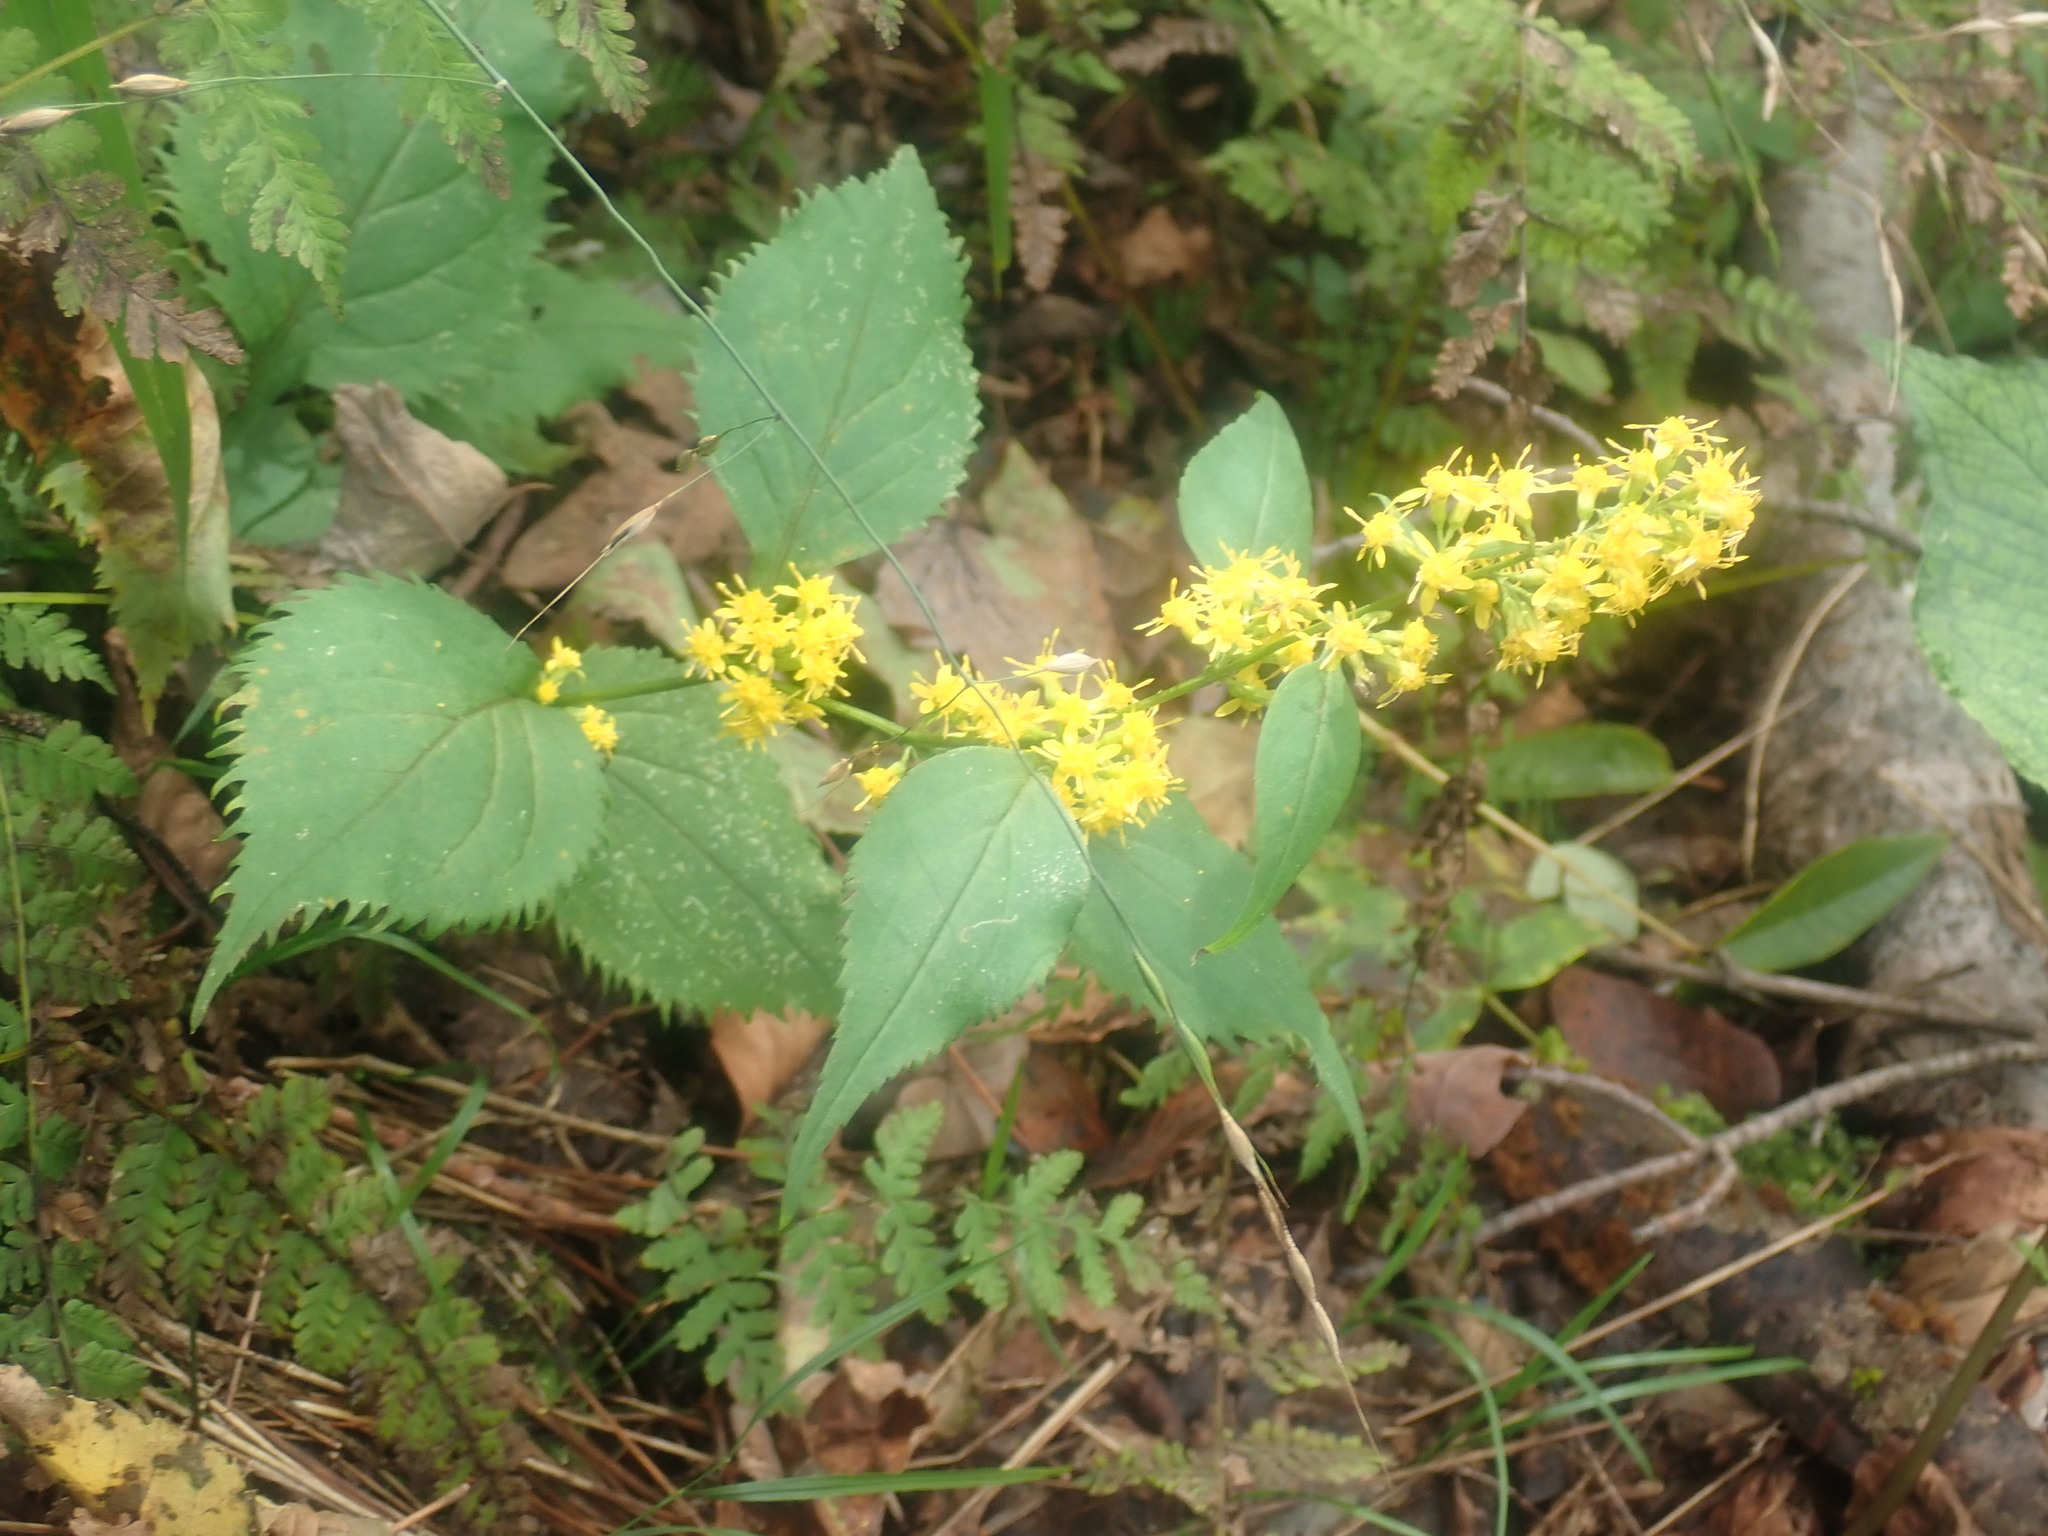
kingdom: Plantae
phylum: Tracheophyta
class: Magnoliopsida
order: Asterales
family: Asteraceae
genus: Solidago
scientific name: Solidago flexicaulis
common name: Zig-zag goldenrod
